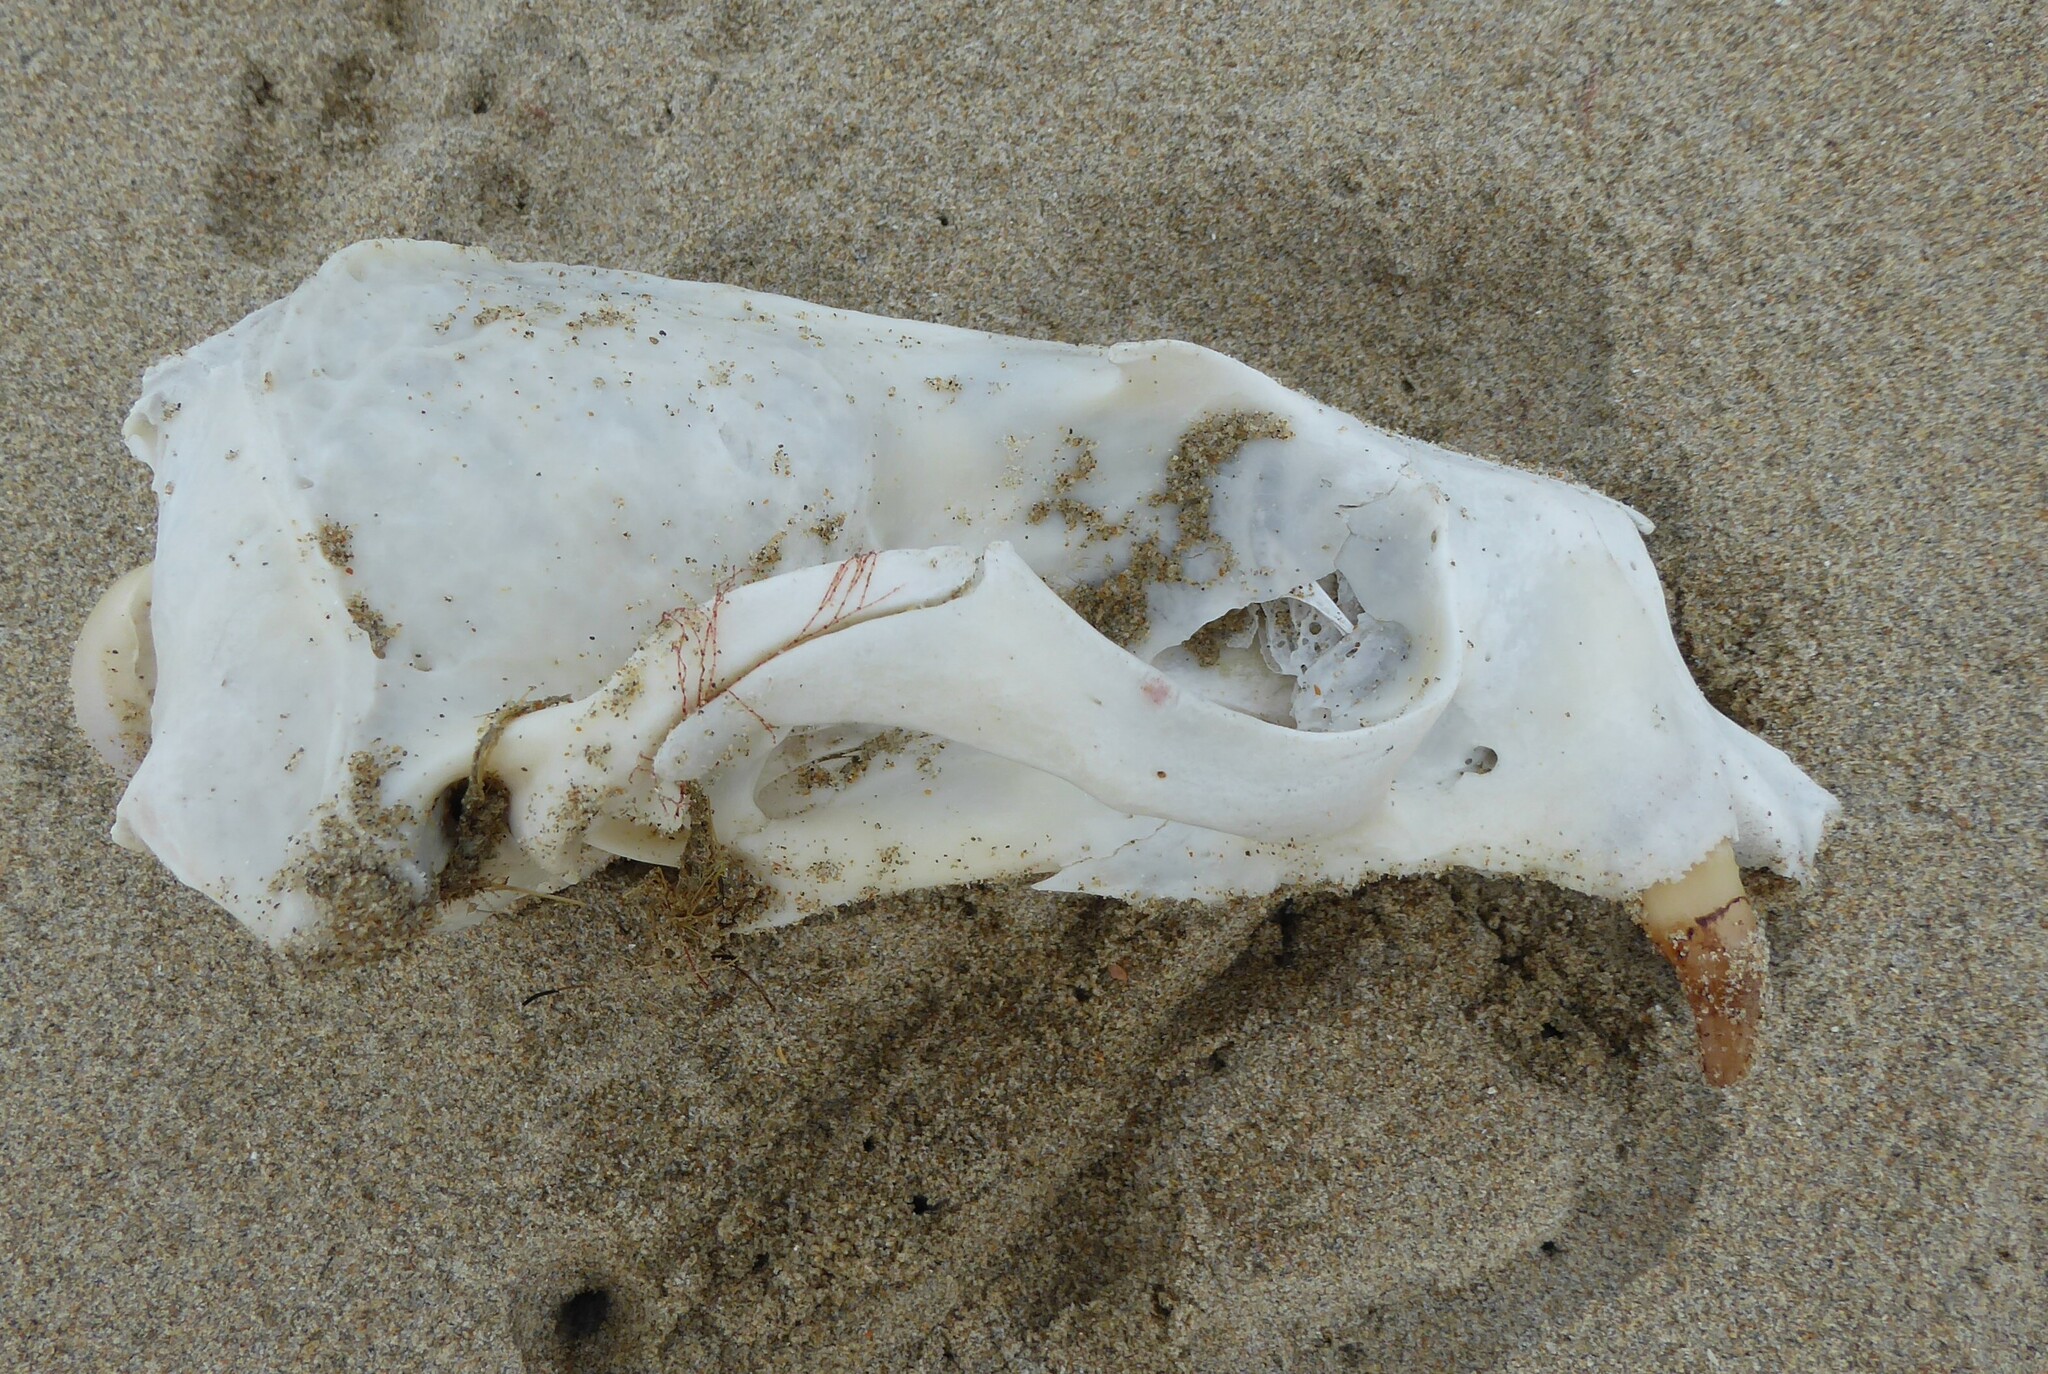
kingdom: Animalia
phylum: Chordata
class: Mammalia
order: Carnivora
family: Otariidae
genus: Phocarctos
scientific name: Phocarctos hookeri
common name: New zealand sea lion
